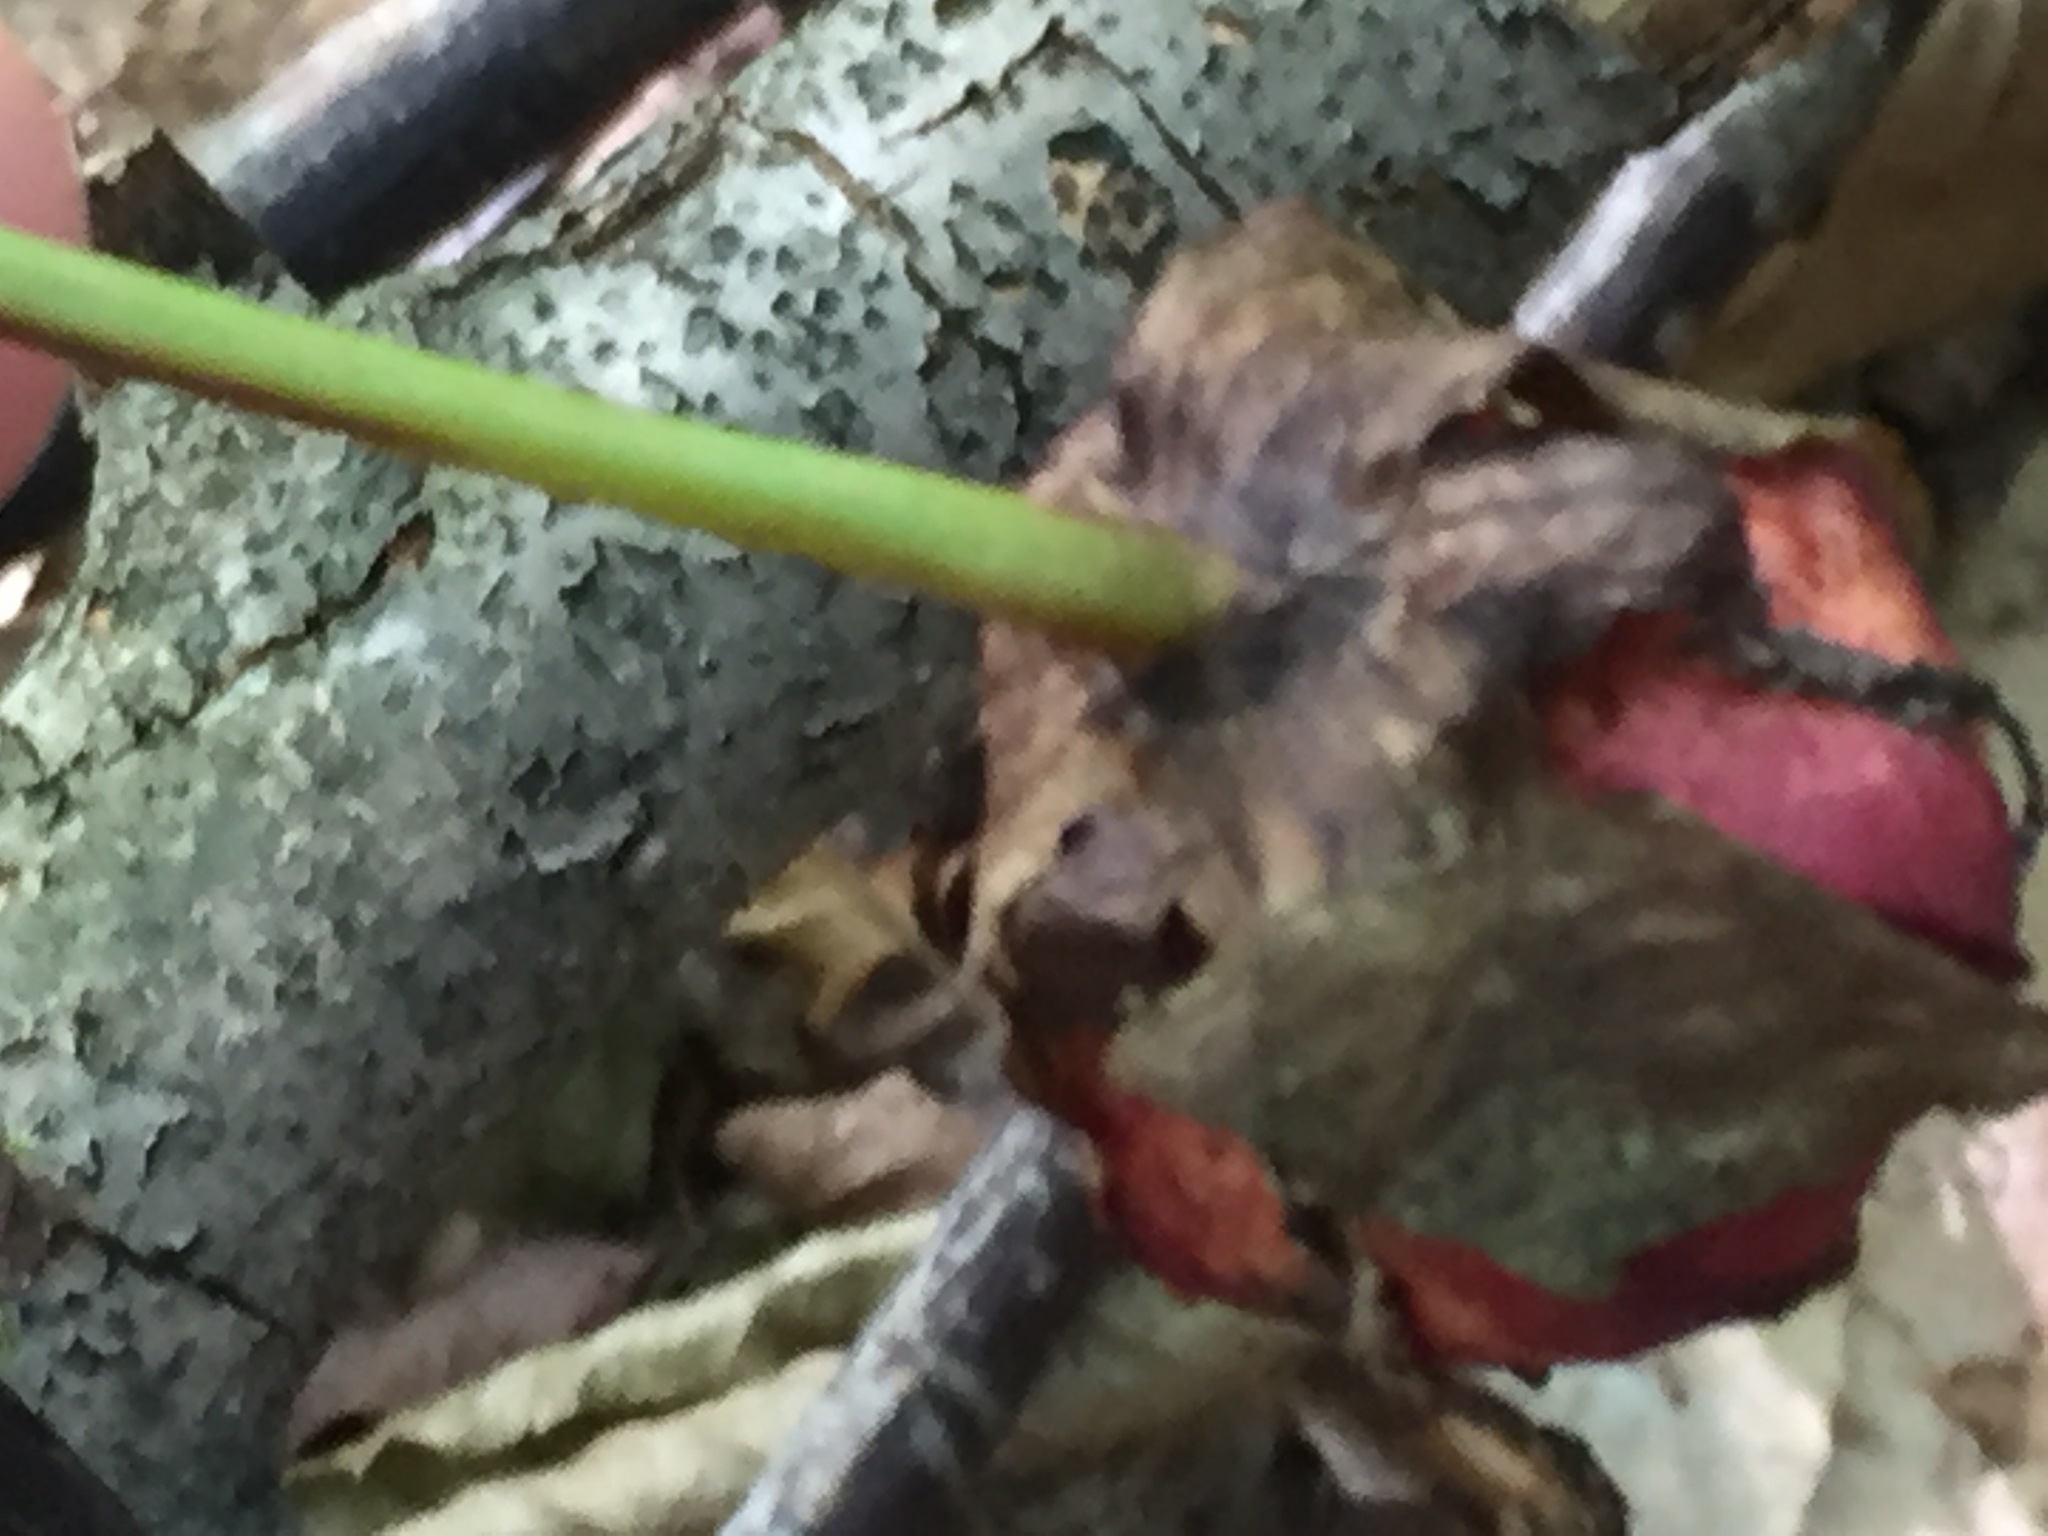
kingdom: Plantae
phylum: Tracheophyta
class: Liliopsida
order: Liliales
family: Melanthiaceae
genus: Trillium
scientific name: Trillium erectum
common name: Purple trillium
